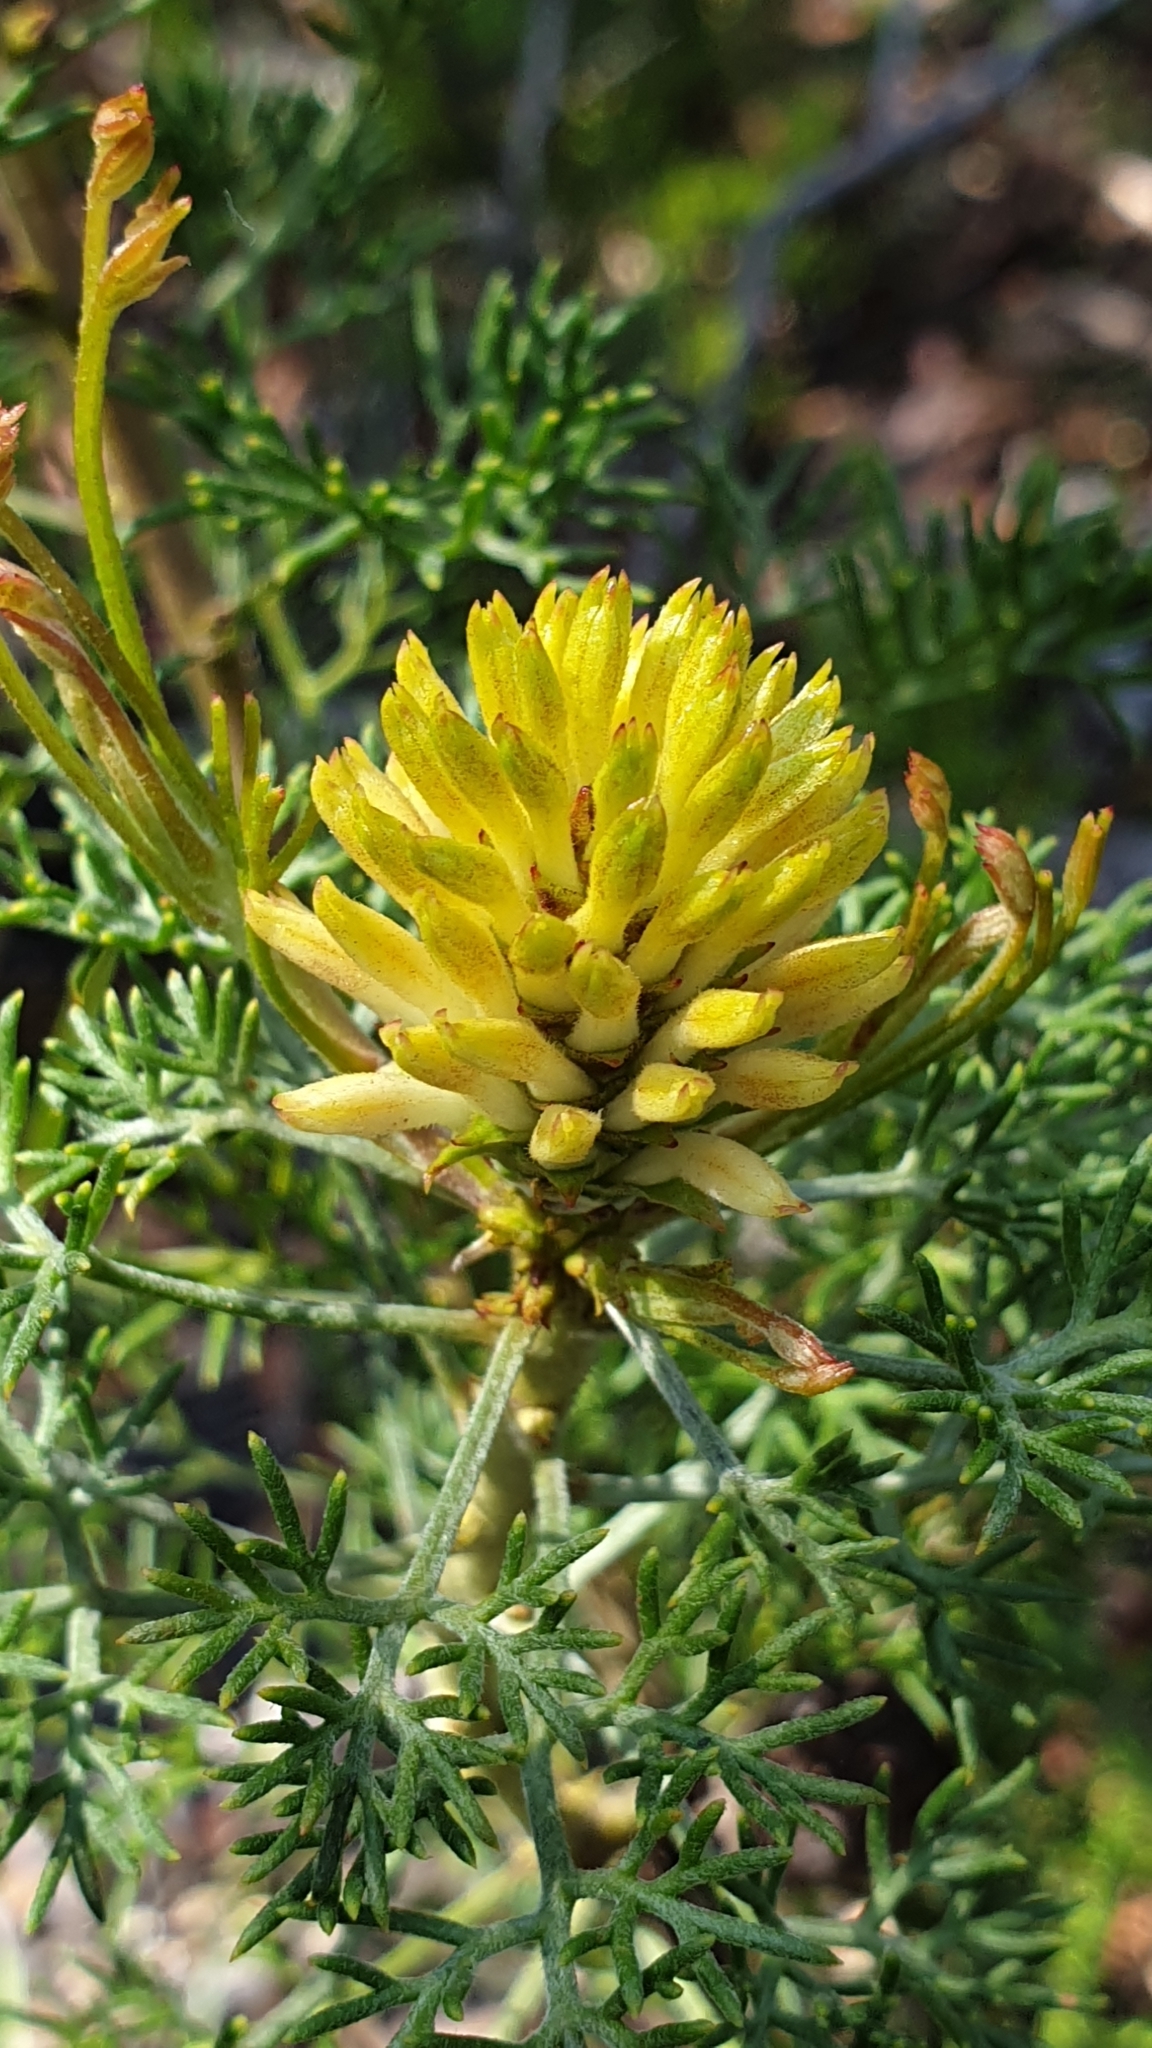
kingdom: Plantae
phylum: Tracheophyta
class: Magnoliopsida
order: Proteales
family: Proteaceae
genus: Petrophile
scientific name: Petrophile canescens
